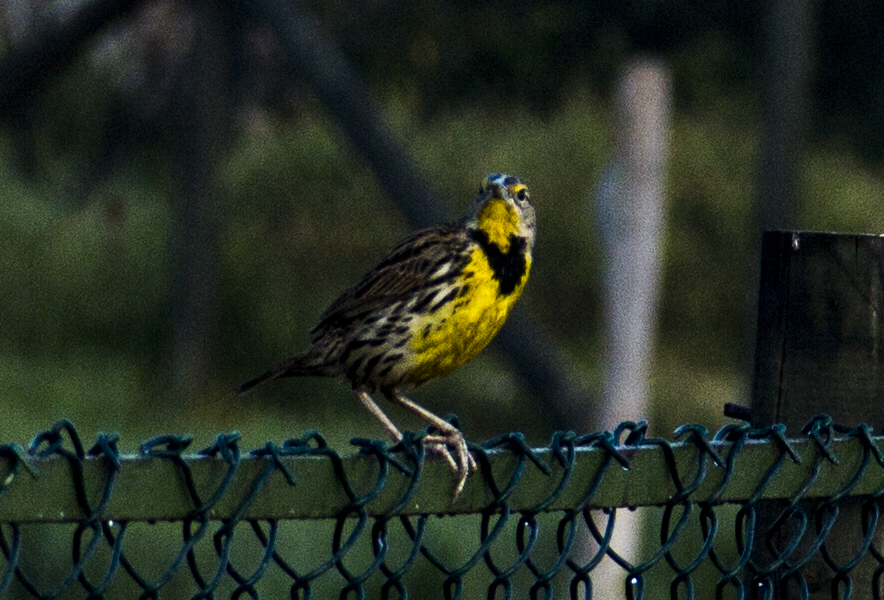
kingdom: Animalia
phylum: Chordata
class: Aves
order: Passeriformes
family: Icteridae
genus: Sturnella
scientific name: Sturnella magna
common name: Eastern meadowlark
